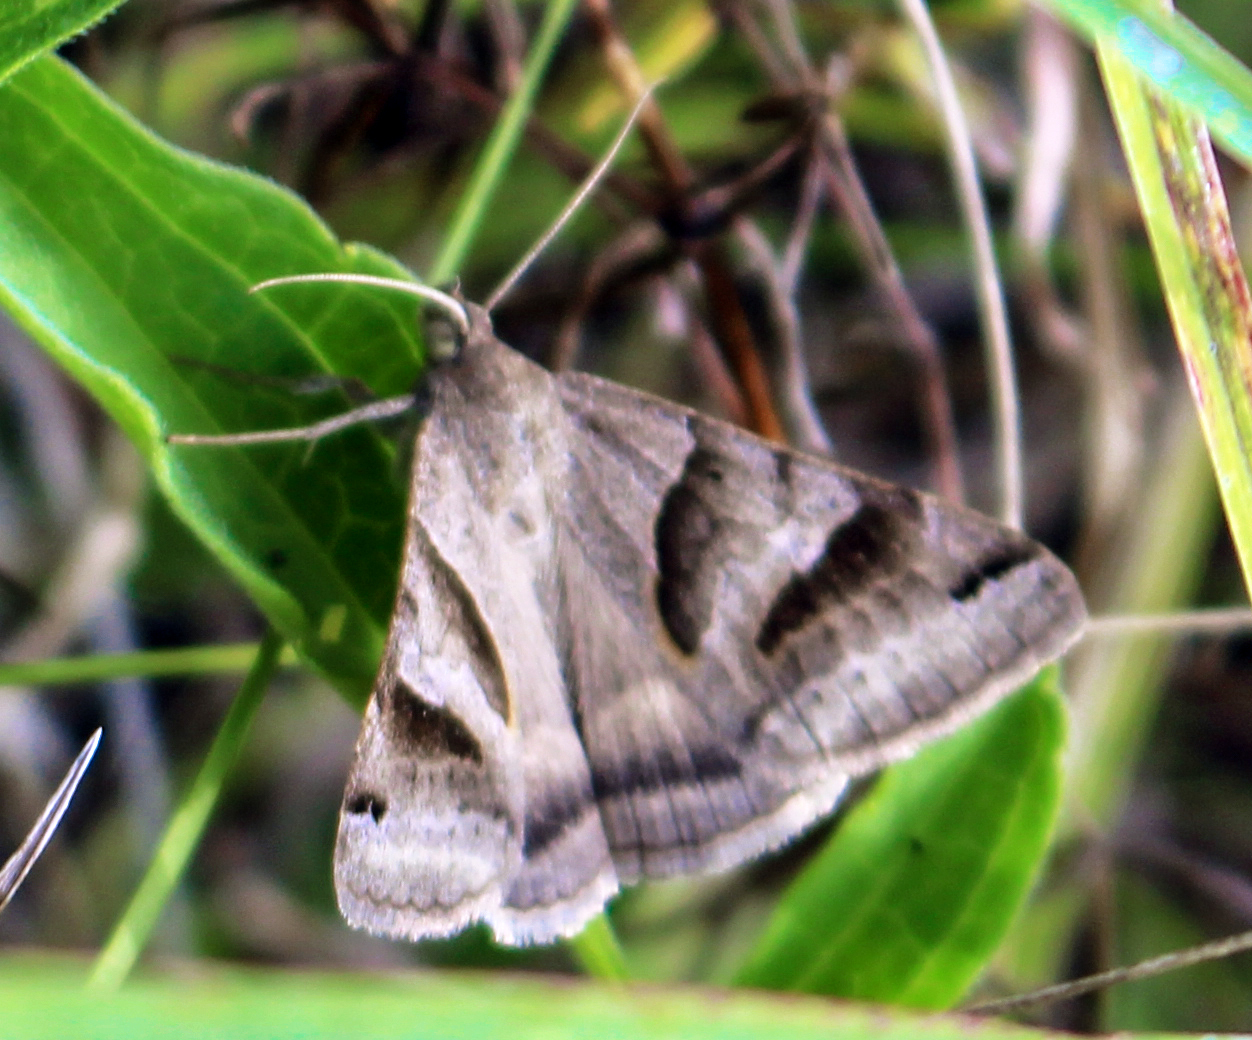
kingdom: Animalia
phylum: Arthropoda
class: Insecta
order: Lepidoptera
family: Erebidae
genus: Caenurgina
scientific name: Caenurgina erechtea
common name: Forage looper moth
